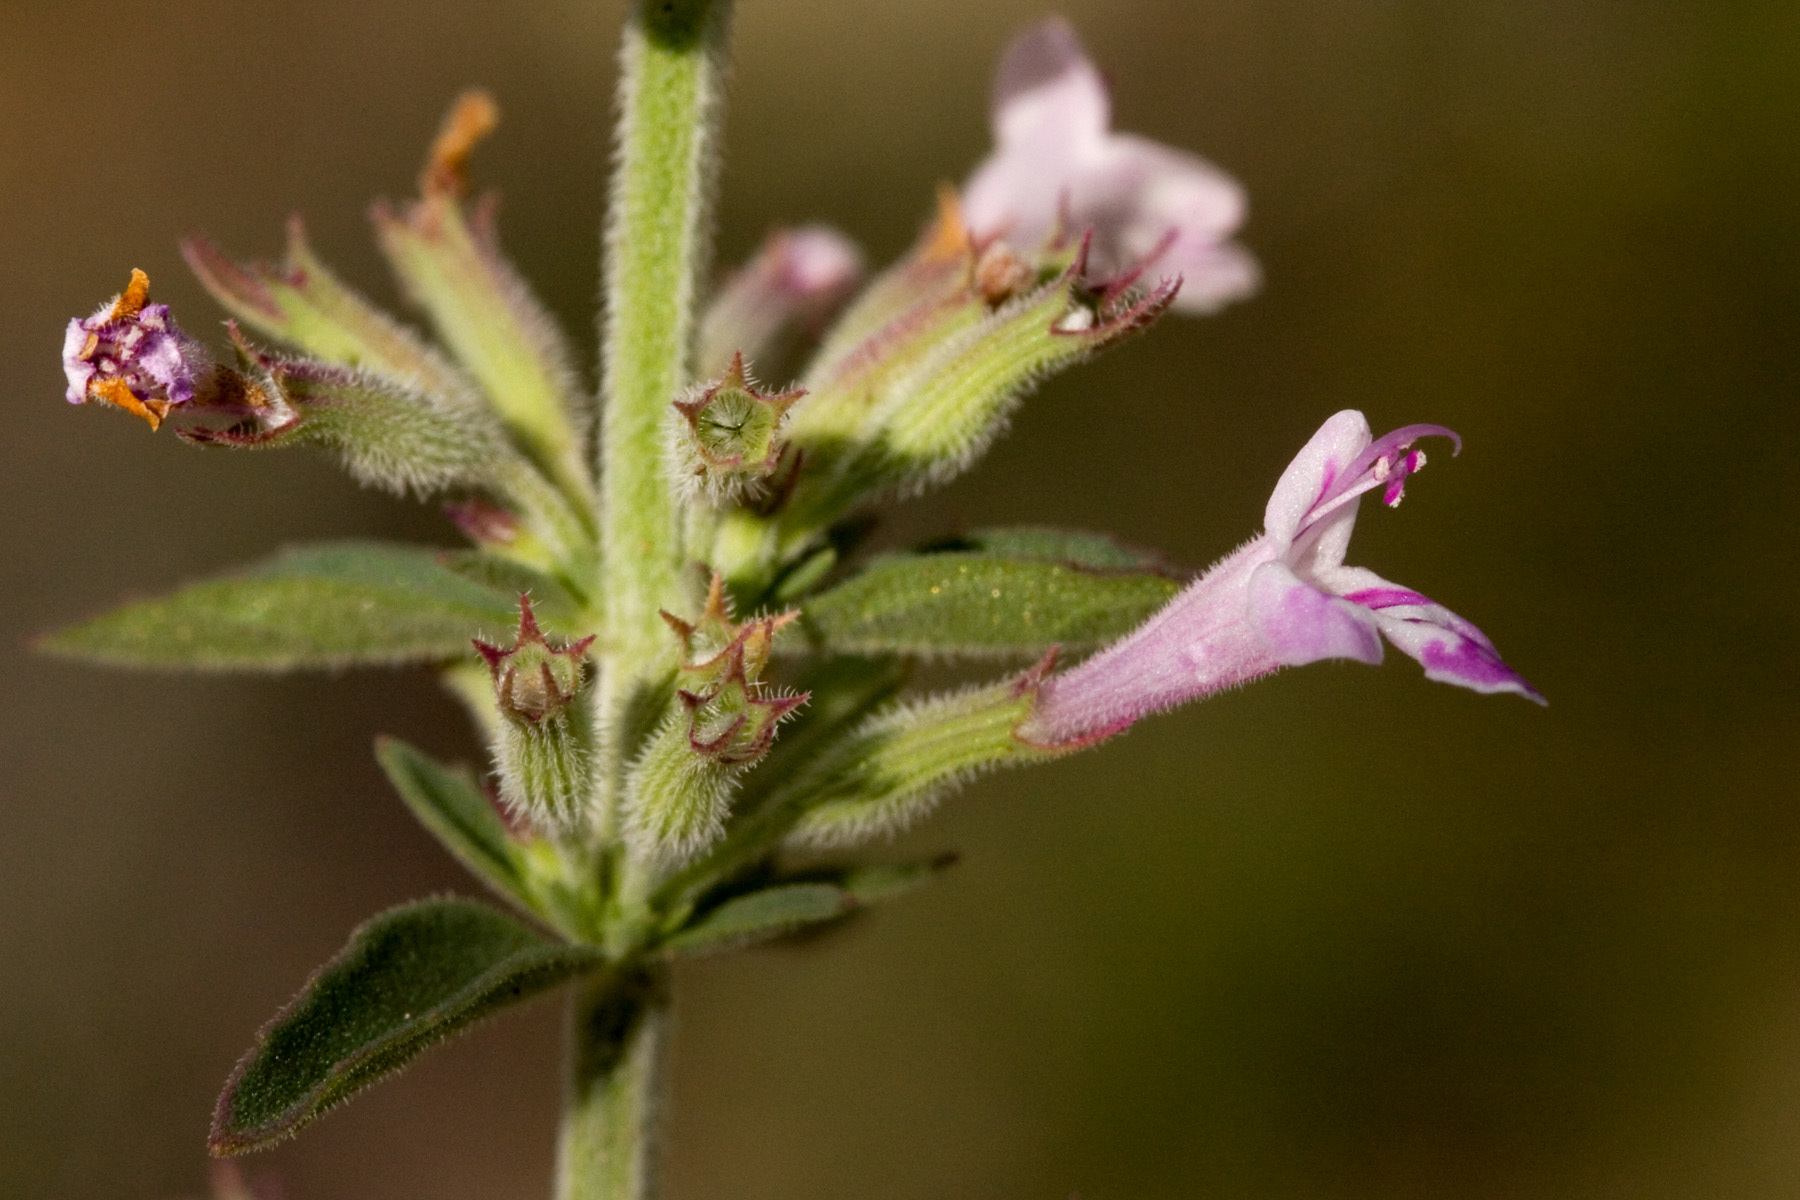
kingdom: Plantae
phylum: Tracheophyta
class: Magnoliopsida
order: Lamiales
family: Lamiaceae
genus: Hedeoma
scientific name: Hedeoma oblongifolia
